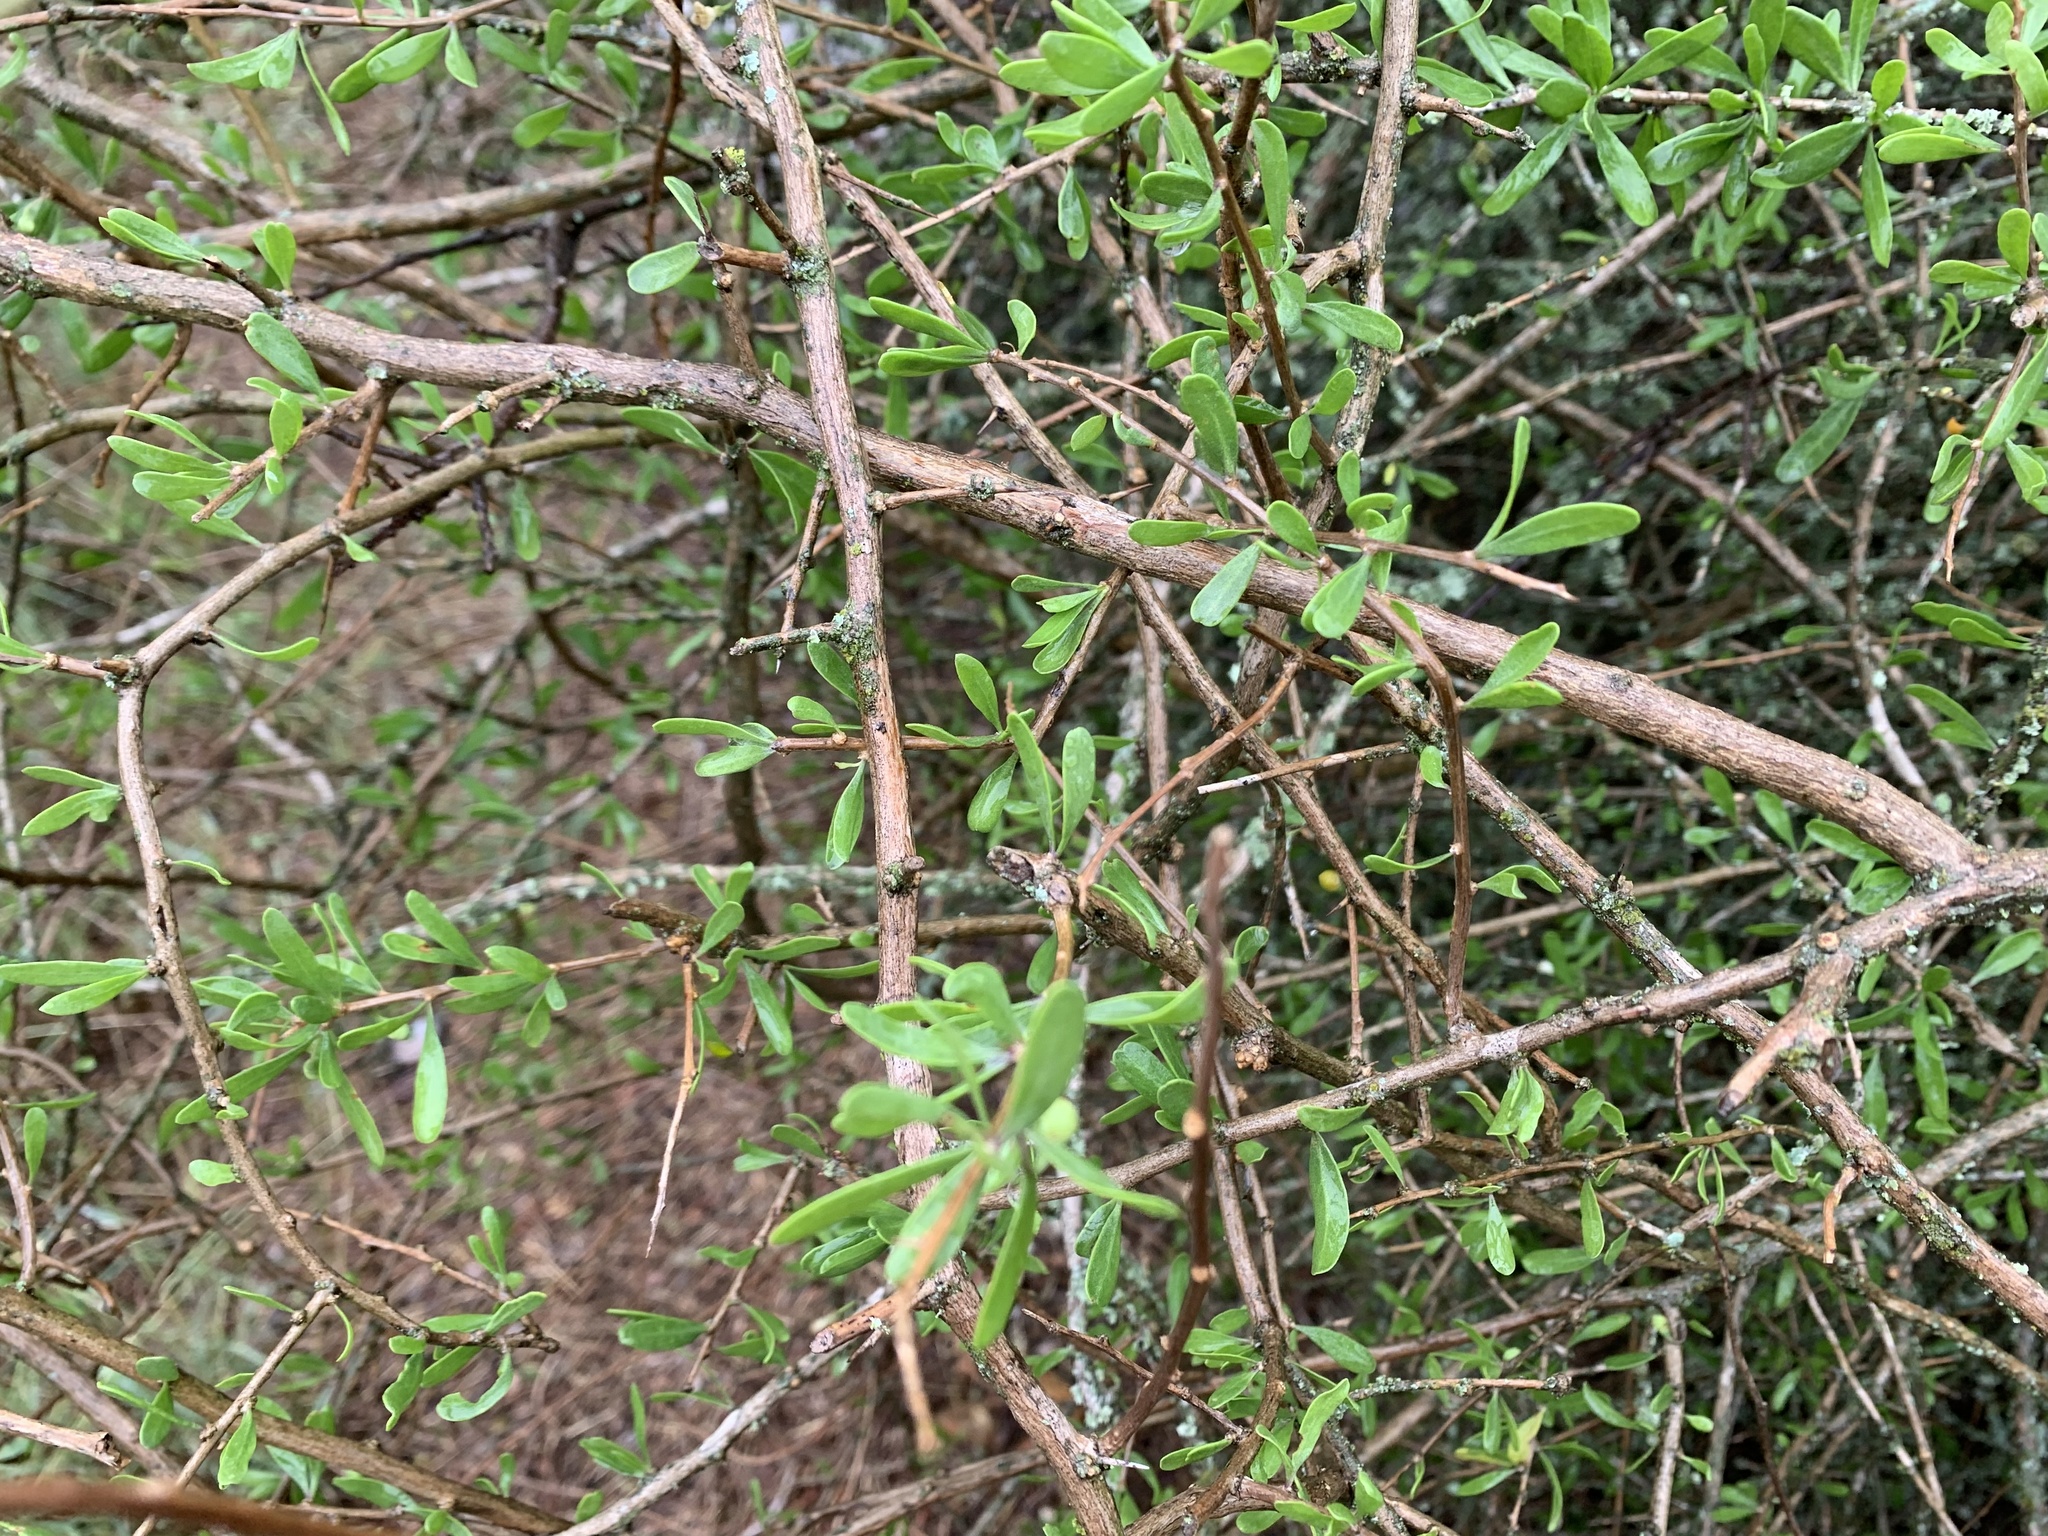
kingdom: Plantae
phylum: Tracheophyta
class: Magnoliopsida
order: Solanales
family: Solanaceae
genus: Lycium
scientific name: Lycium berlandieri
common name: Berlandier wolfberry
